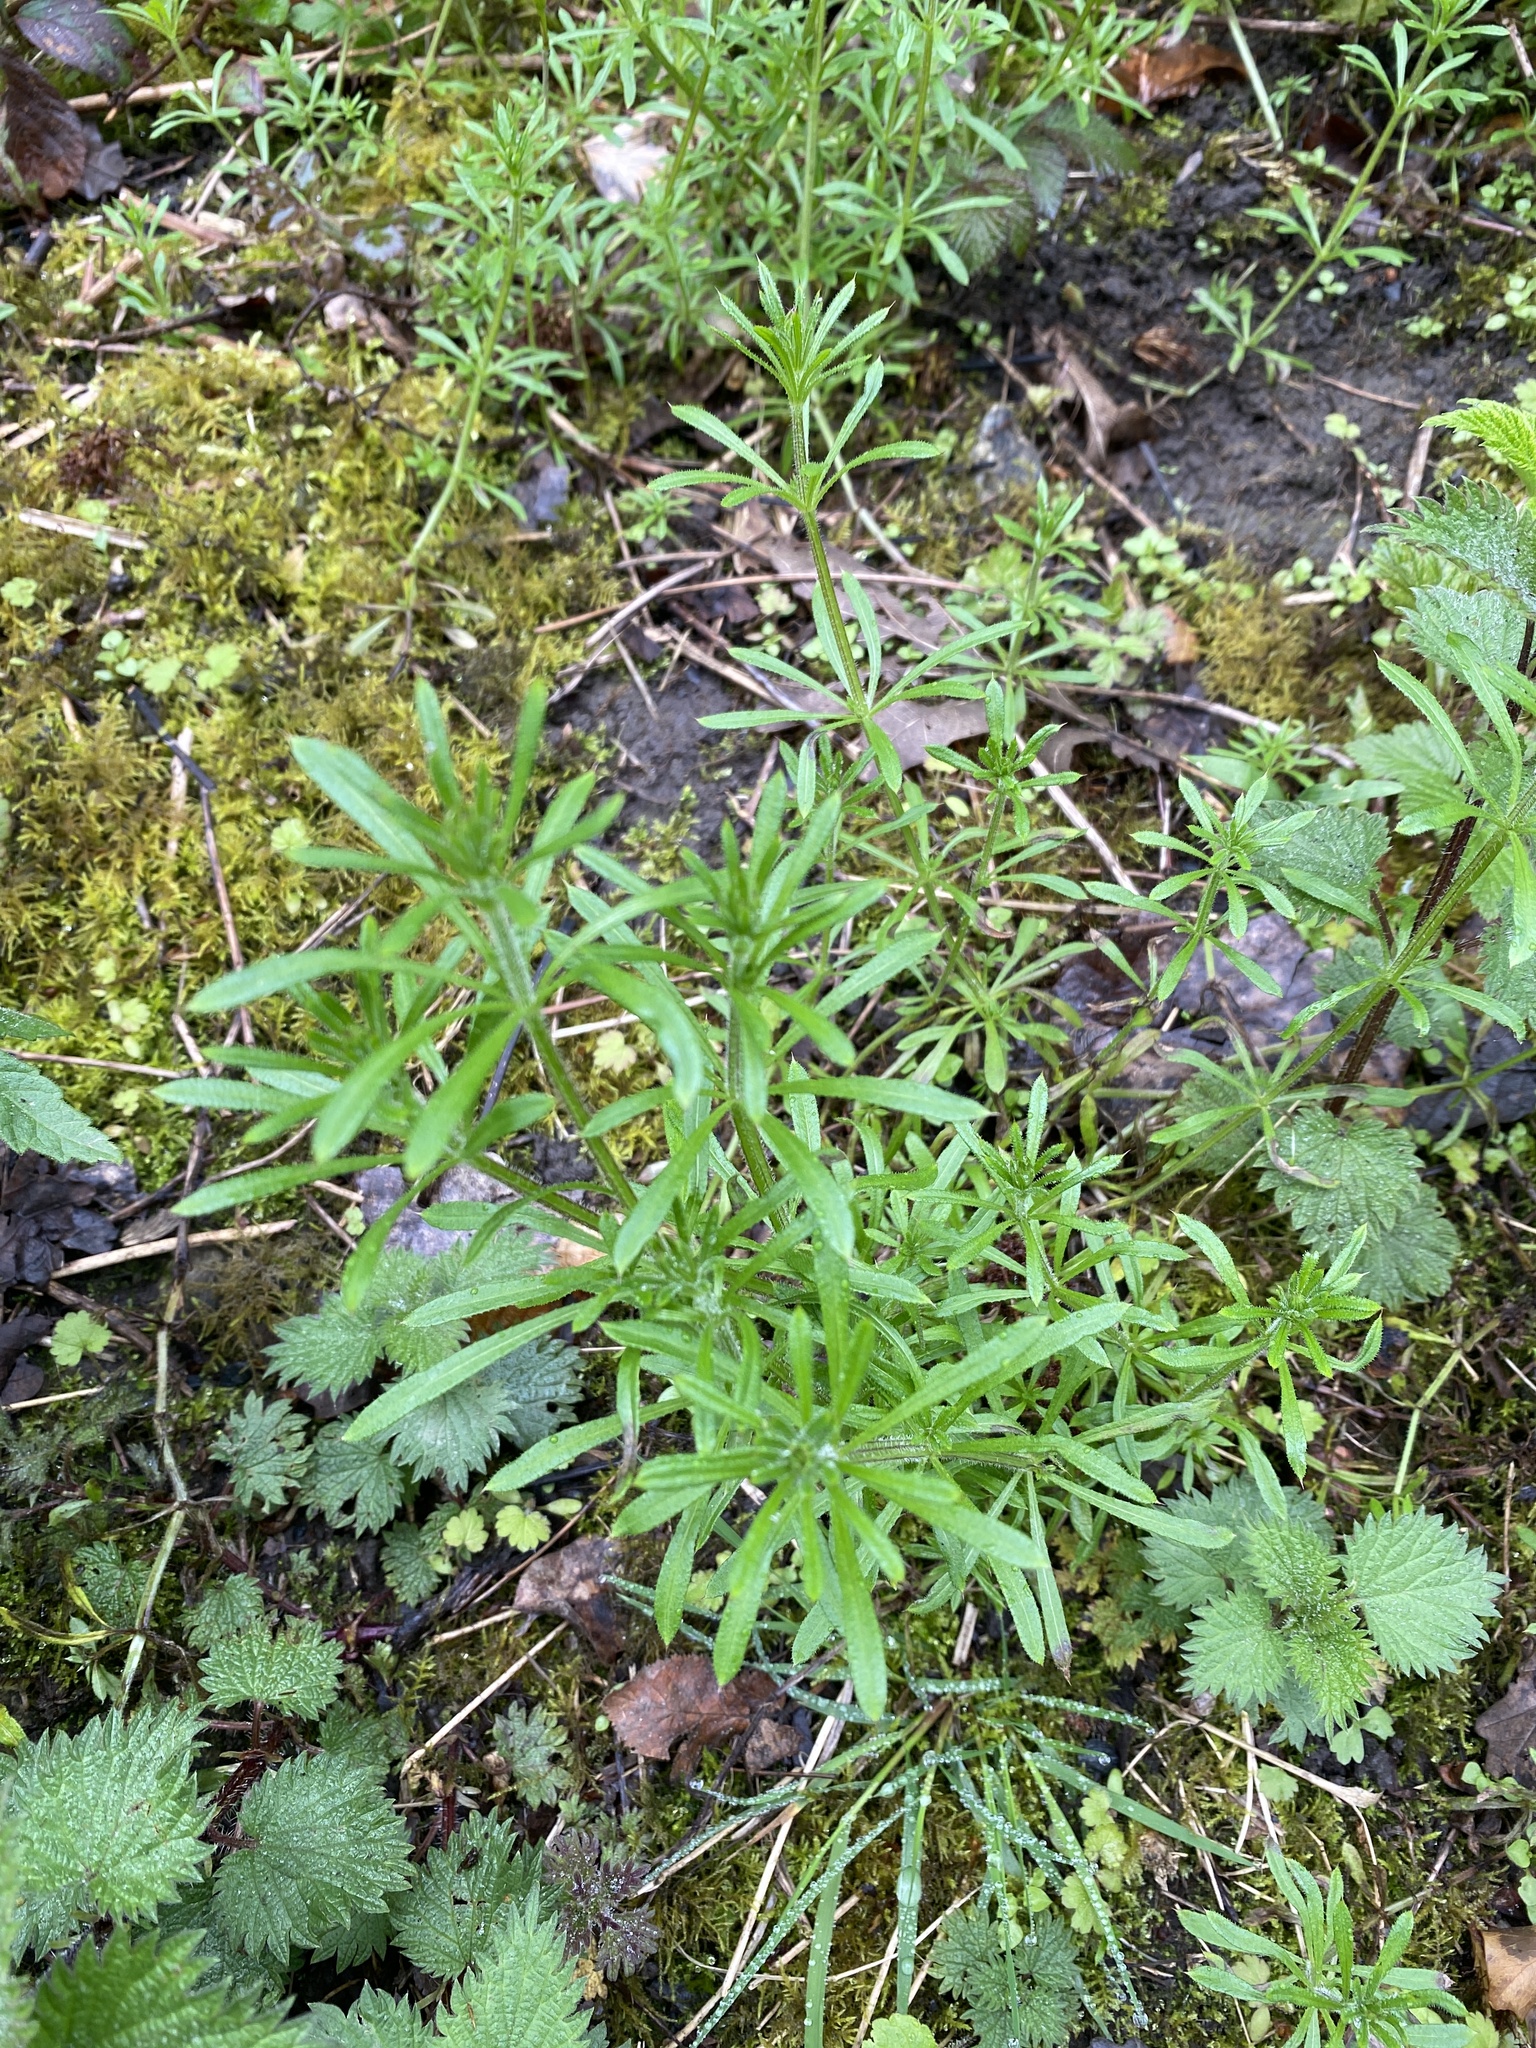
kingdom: Plantae
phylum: Tracheophyta
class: Magnoliopsida
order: Gentianales
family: Rubiaceae
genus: Galium
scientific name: Galium aparine
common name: Cleavers
